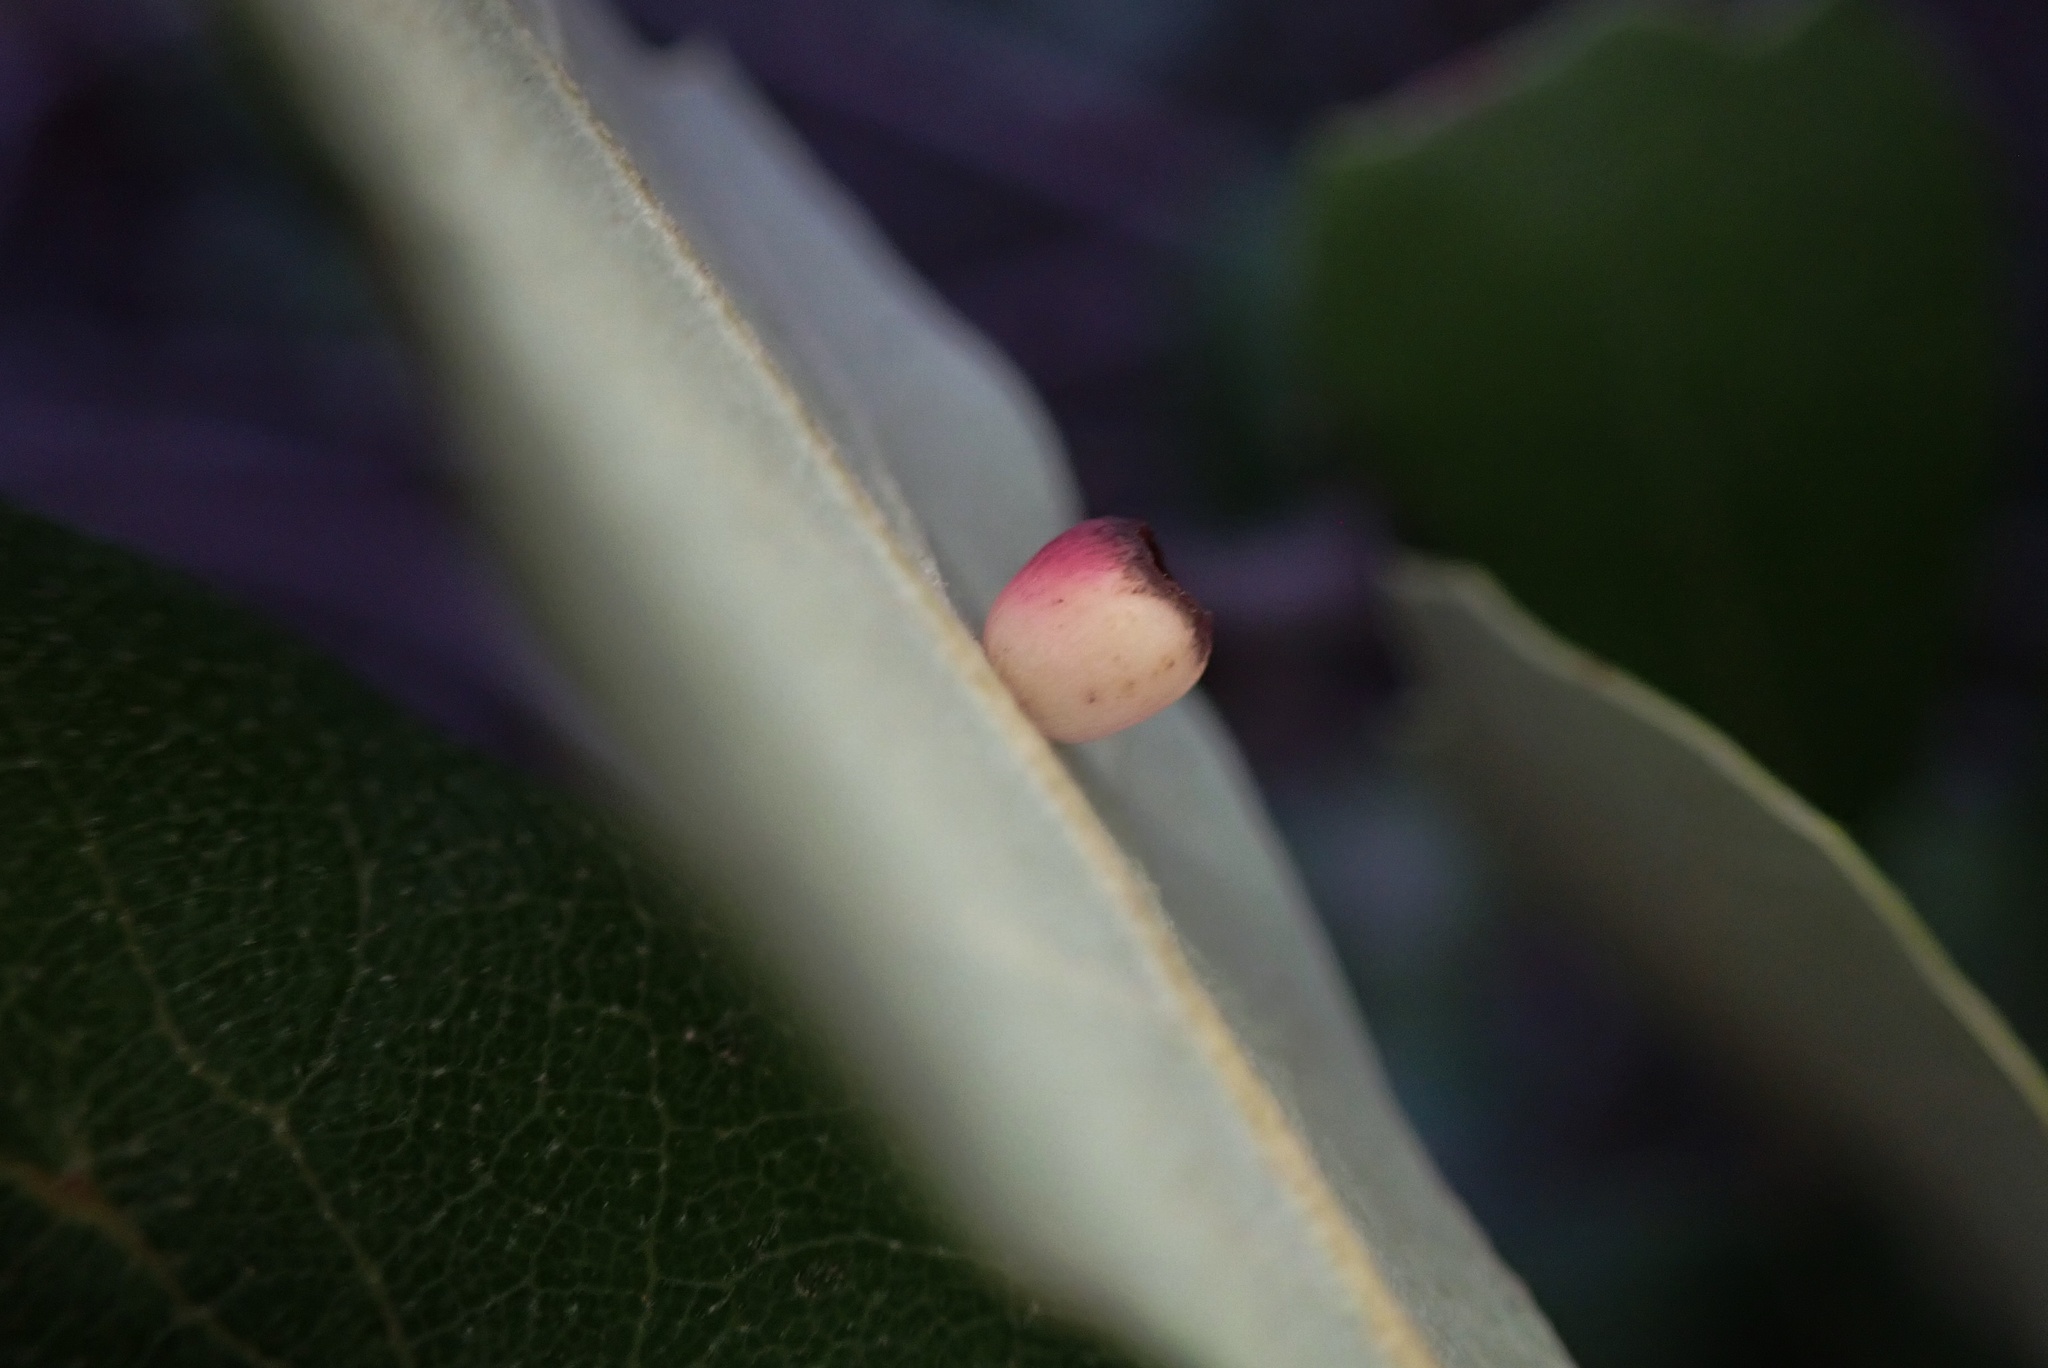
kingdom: Animalia
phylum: Arthropoda
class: Insecta
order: Hymenoptera
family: Cynipidae
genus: Phylloteras
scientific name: Phylloteras
